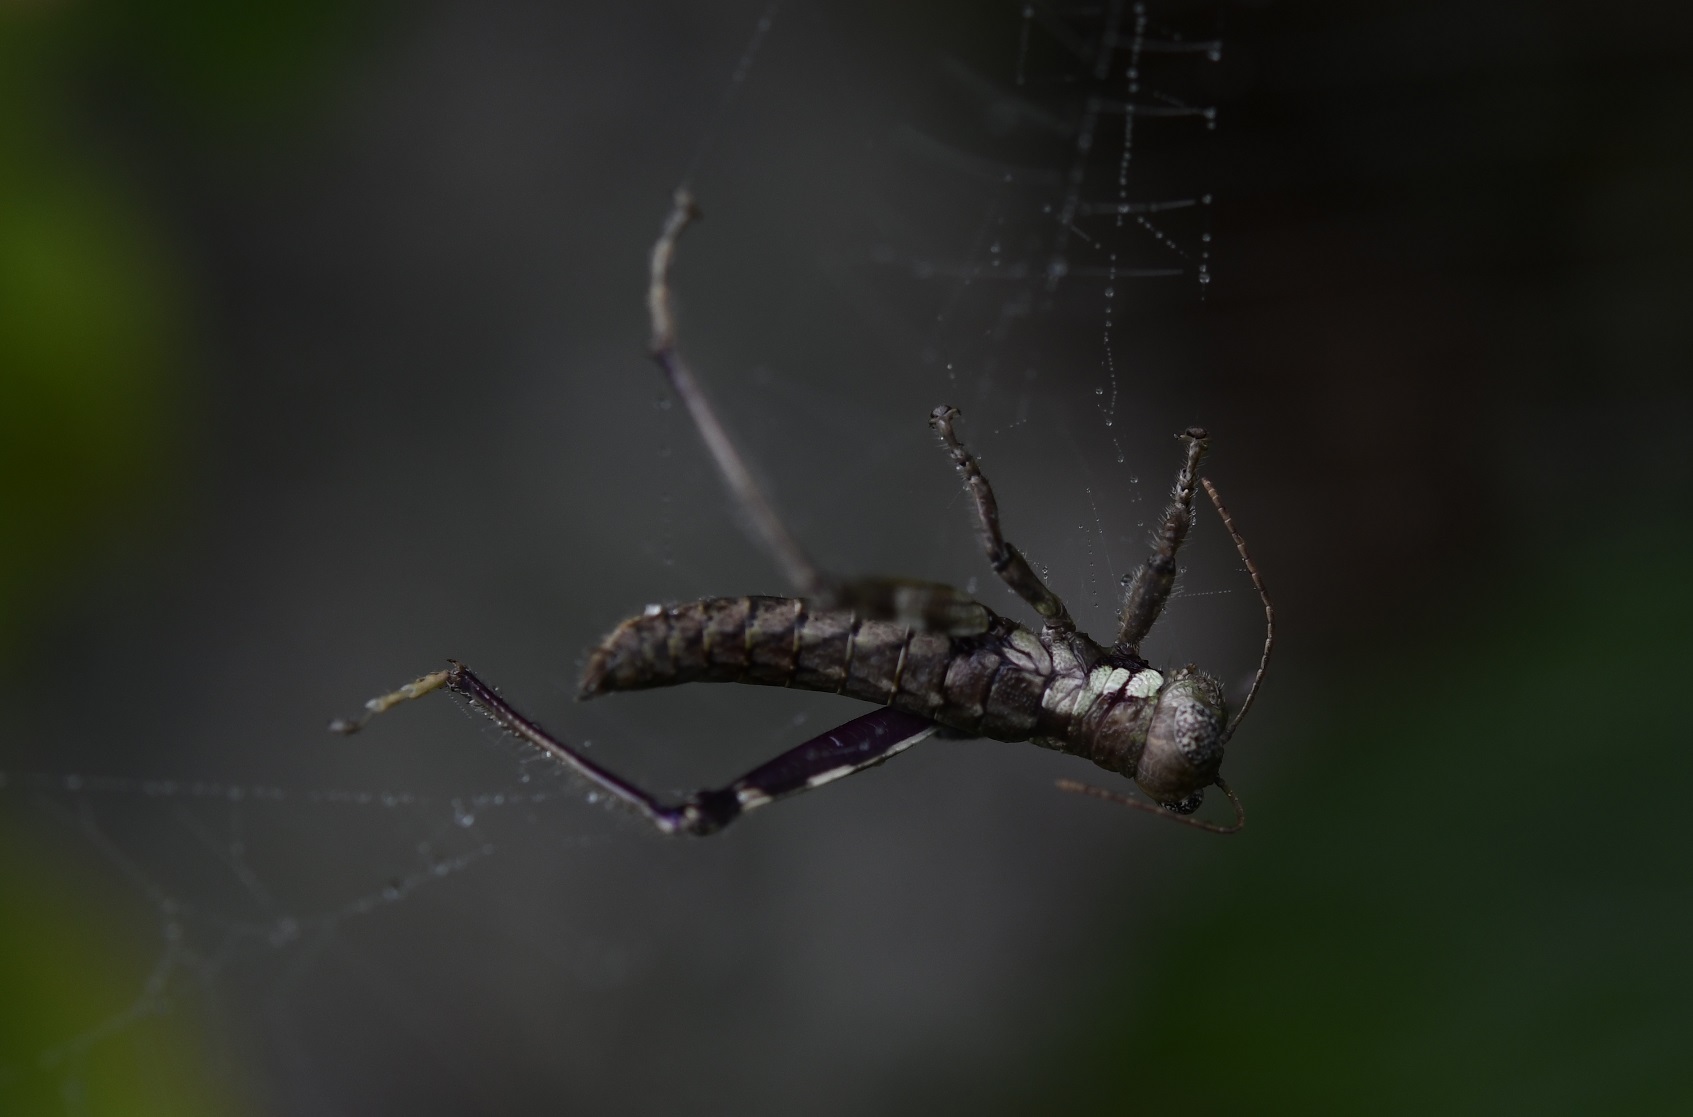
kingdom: Animalia
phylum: Arthropoda
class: Insecta
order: Orthoptera
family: Romaleidae
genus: Pararhicnoderma
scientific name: Pararhicnoderma eniocanoi
